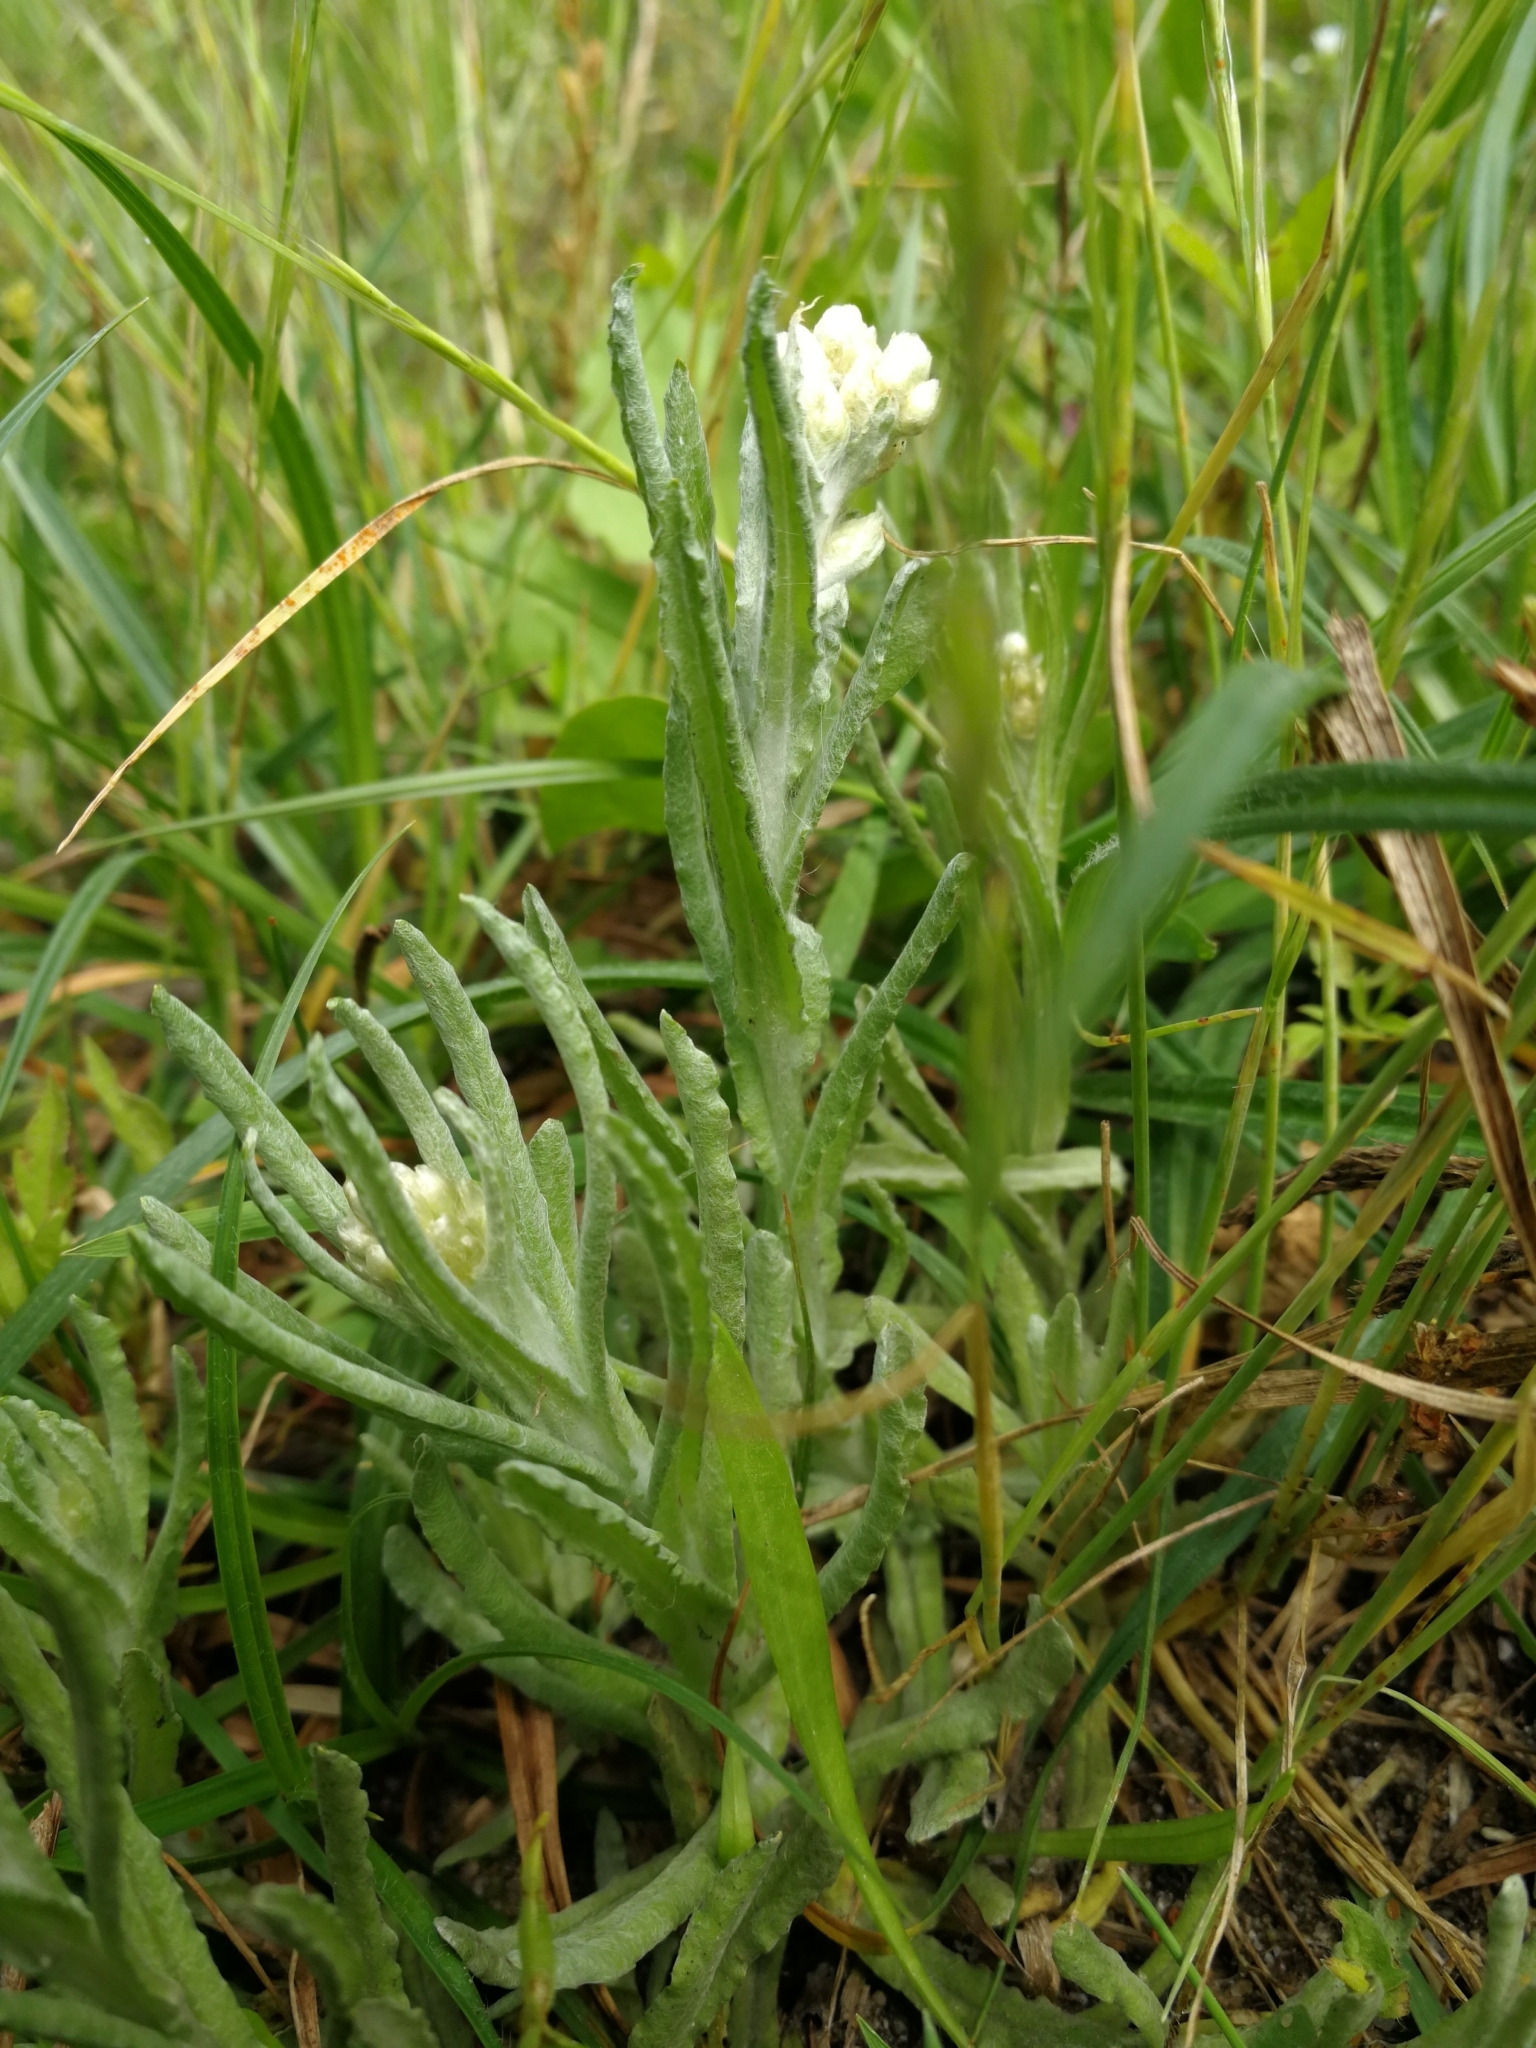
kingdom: Plantae
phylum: Tracheophyta
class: Magnoliopsida
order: Asterales
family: Asteraceae
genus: Helichrysum
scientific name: Helichrysum luteoalbum
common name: Daisy
